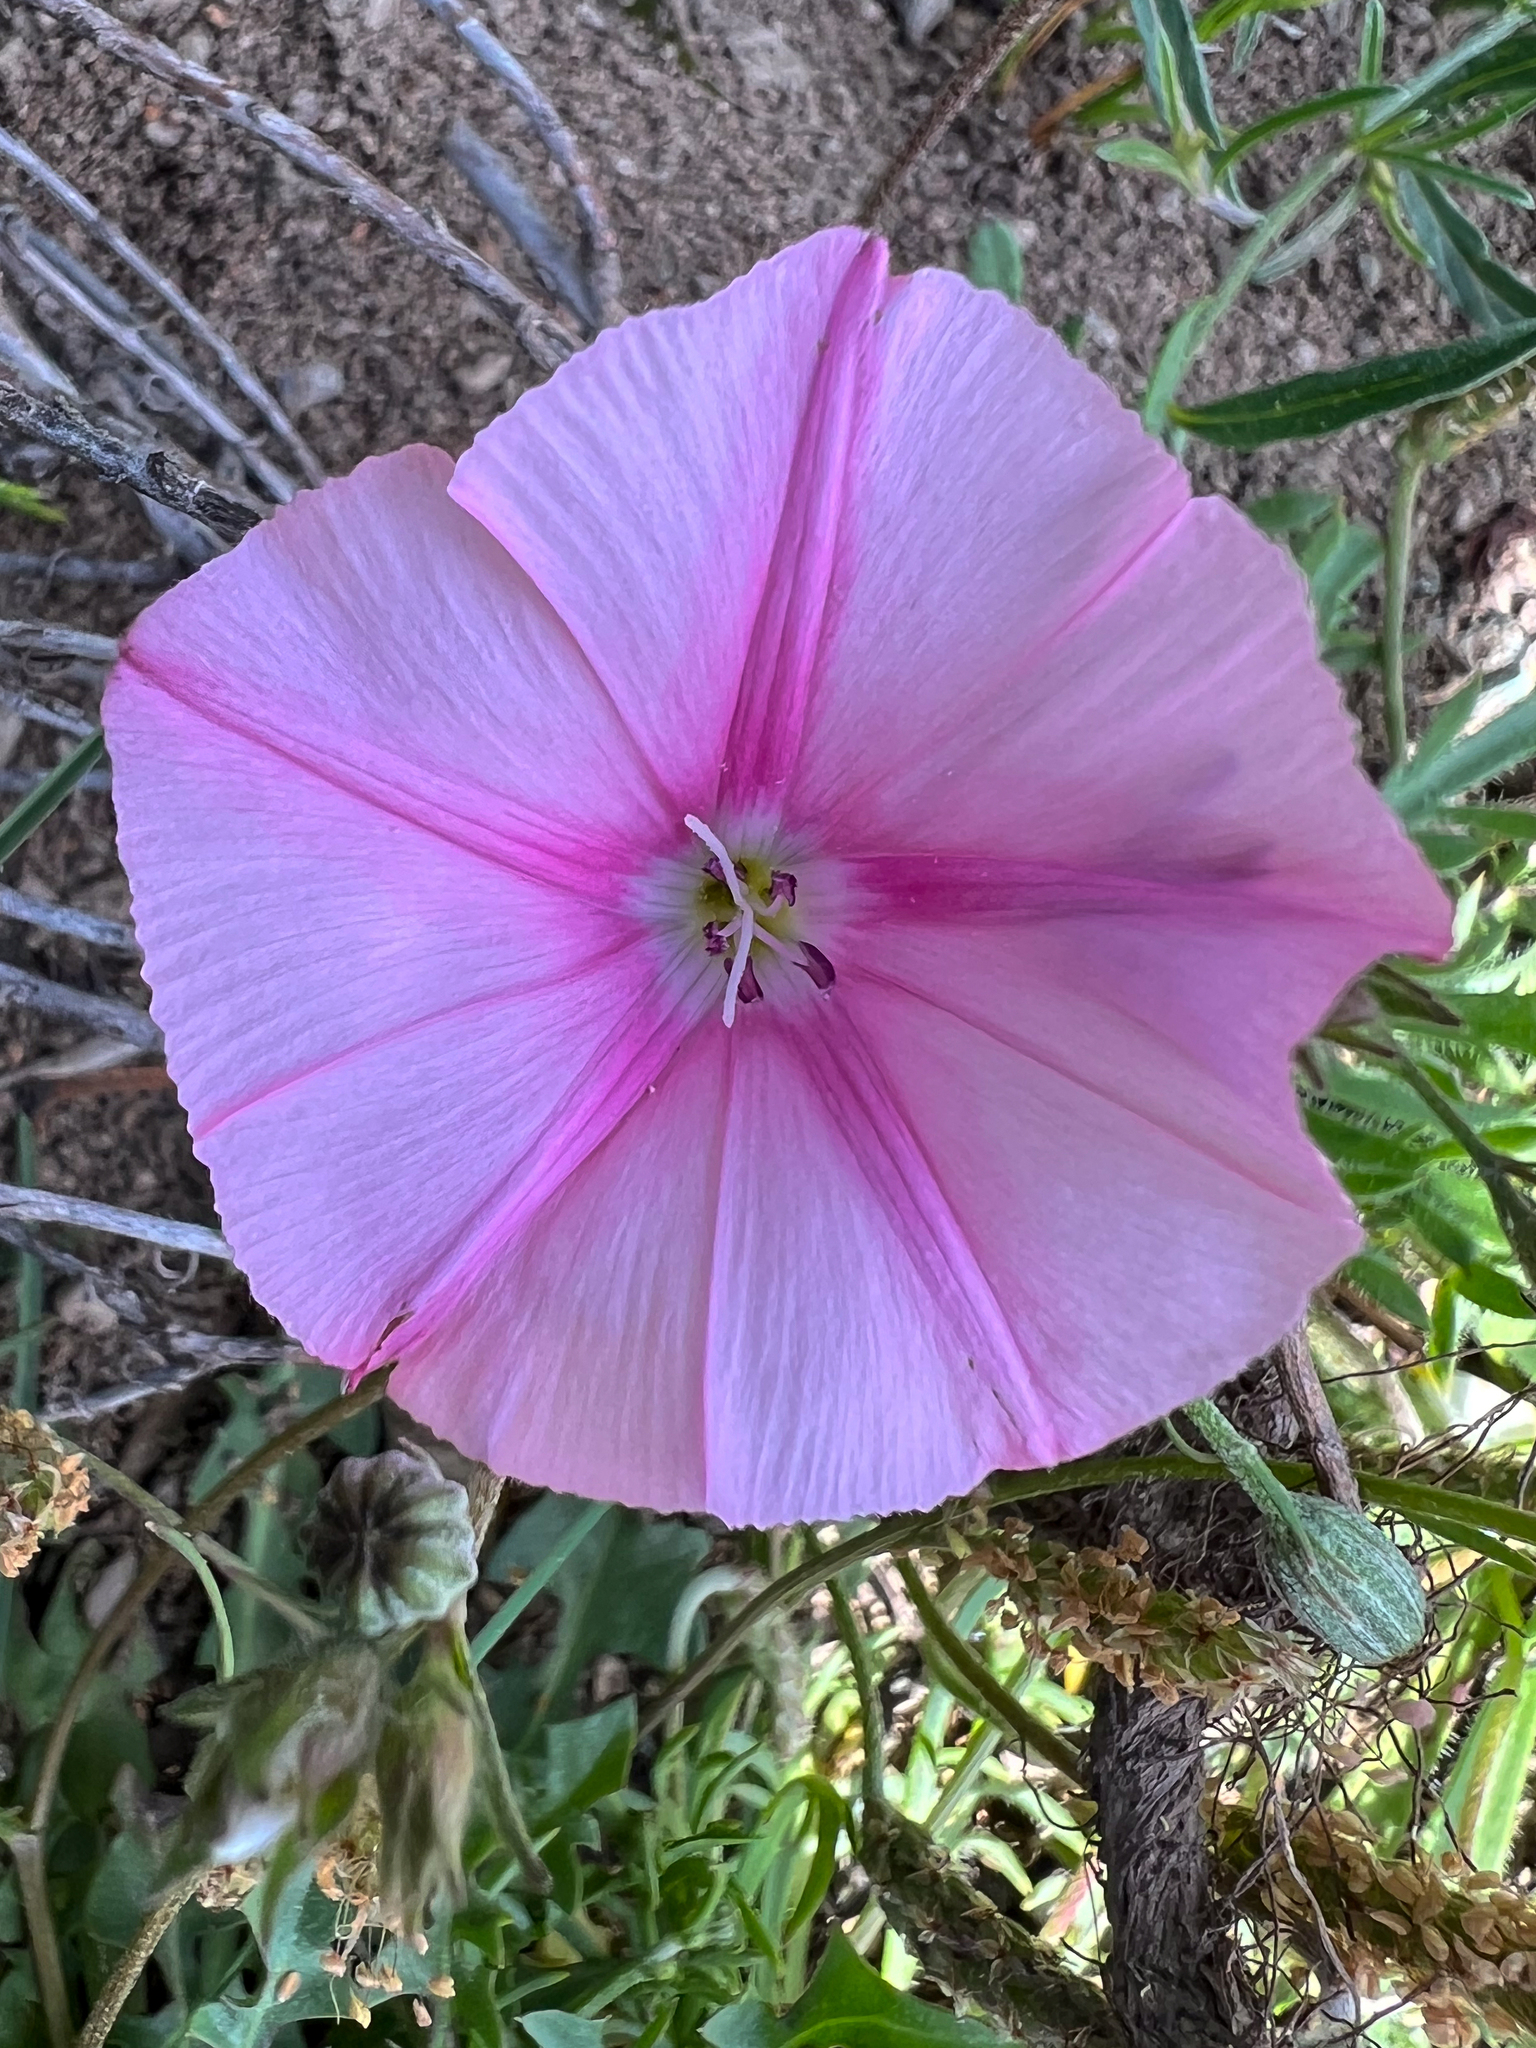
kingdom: Plantae
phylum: Tracheophyta
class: Magnoliopsida
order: Solanales
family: Convolvulaceae
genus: Convolvulus
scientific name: Convolvulus cantabrica
